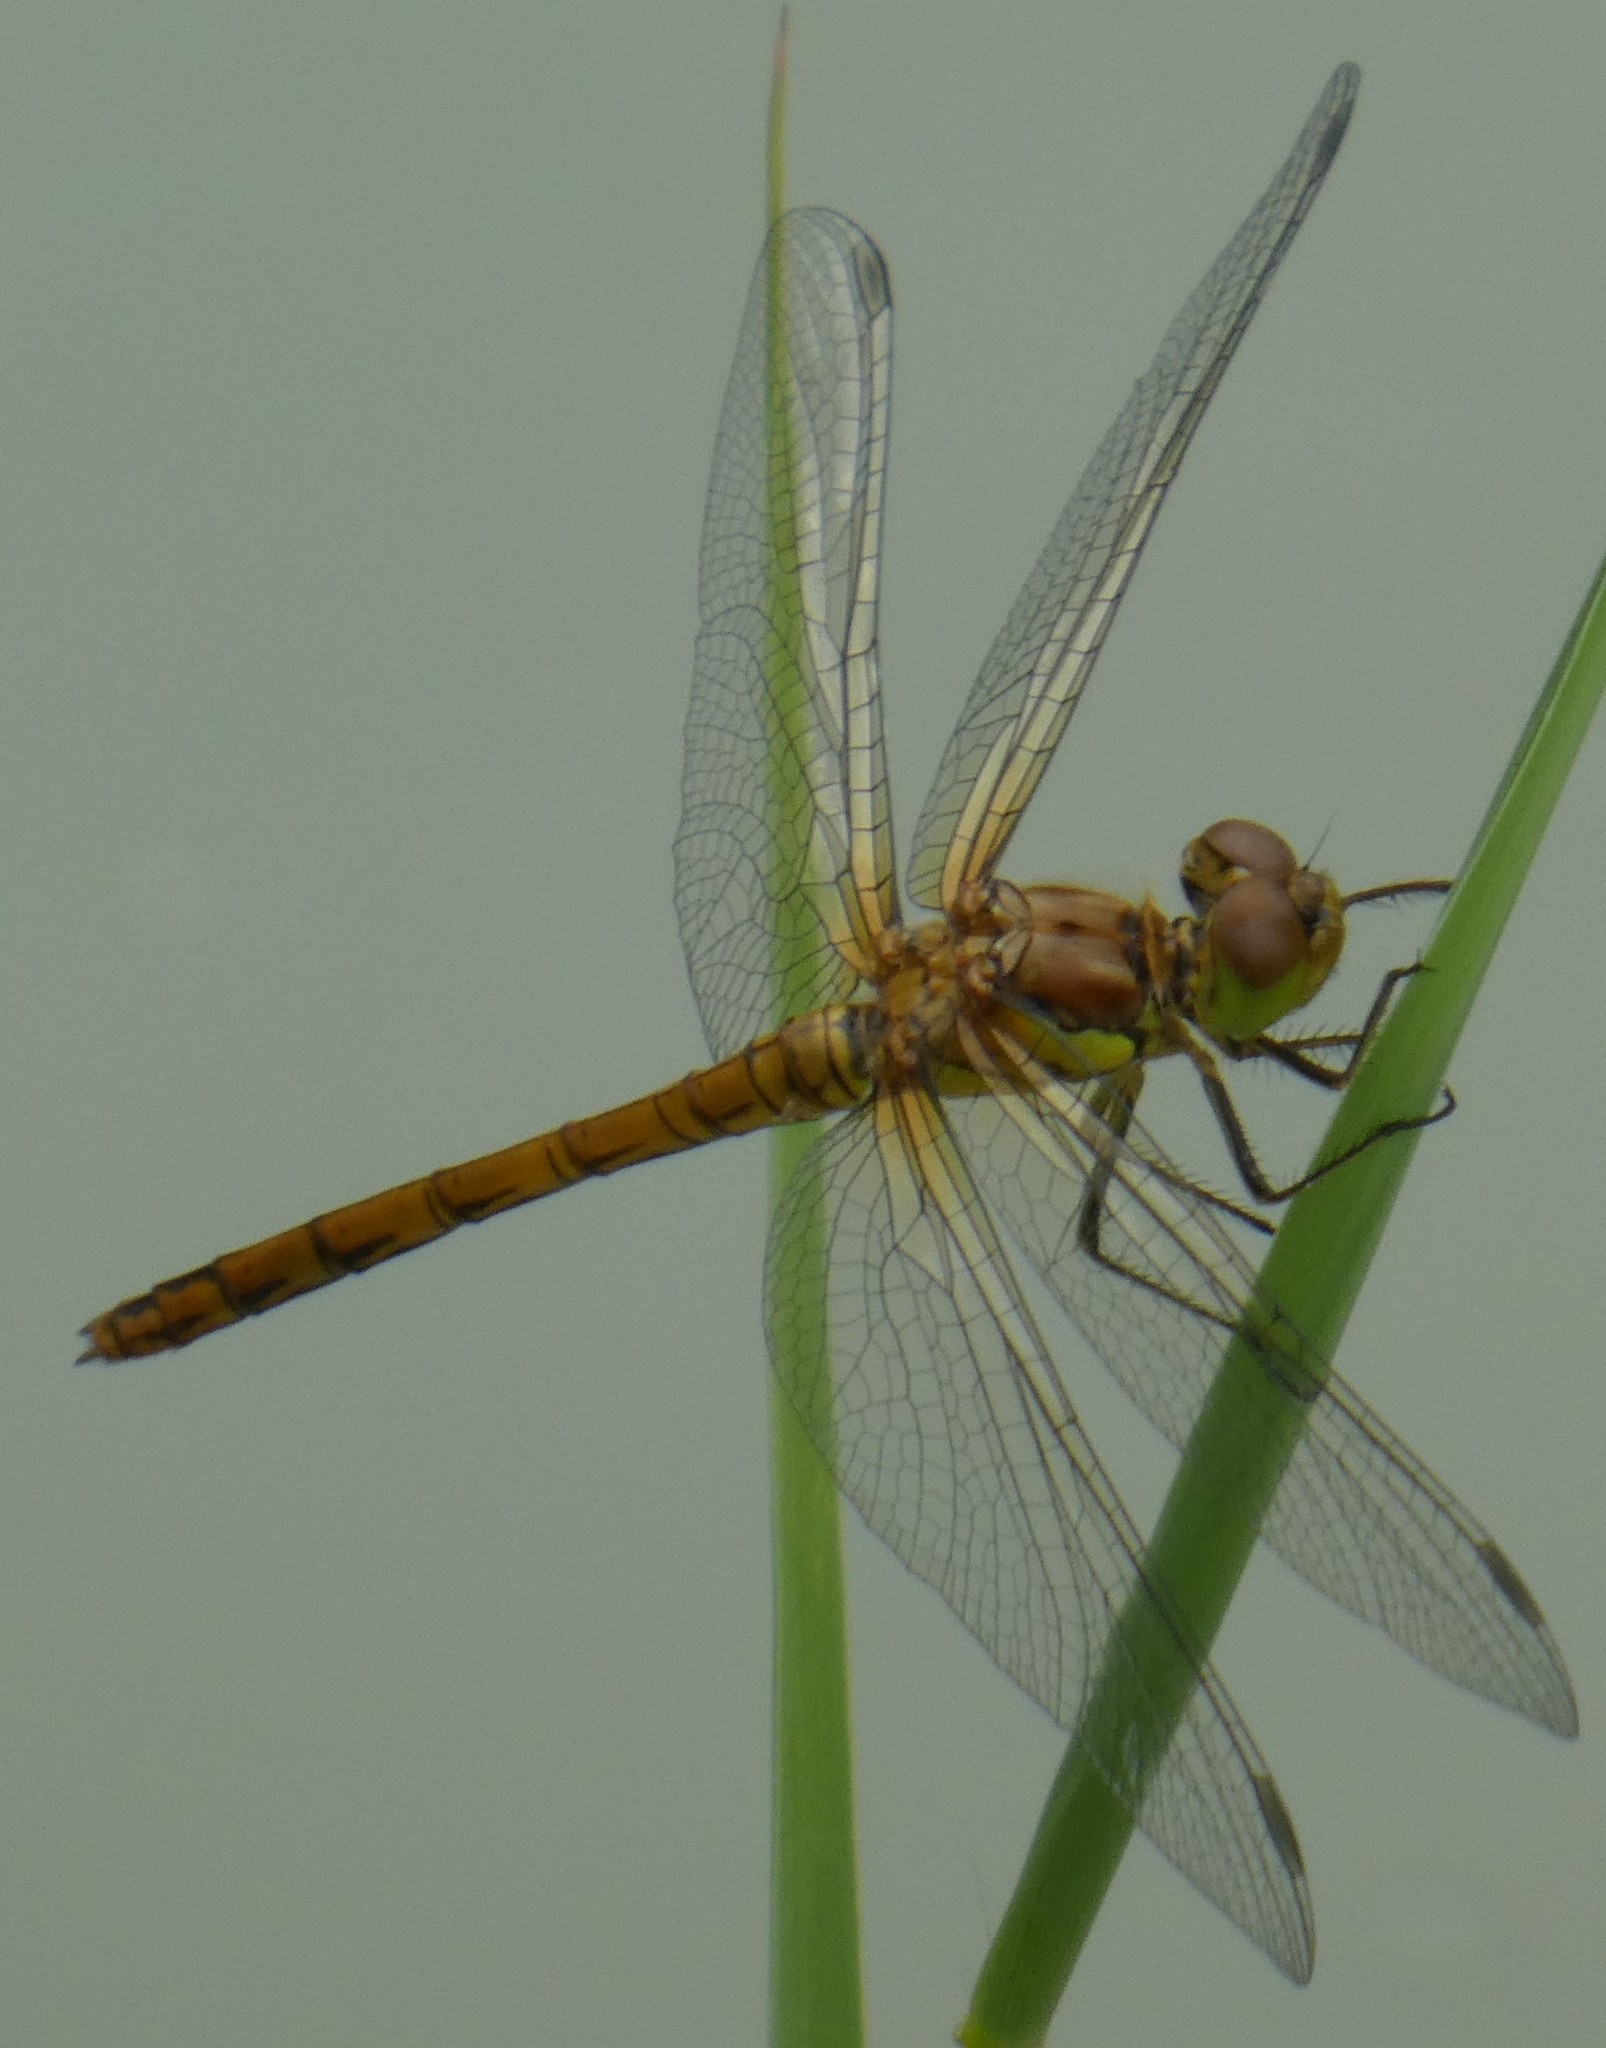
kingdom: Animalia
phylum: Arthropoda
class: Insecta
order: Odonata
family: Libellulidae
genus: Sympetrum
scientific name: Sympetrum striolatum
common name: Common darter
